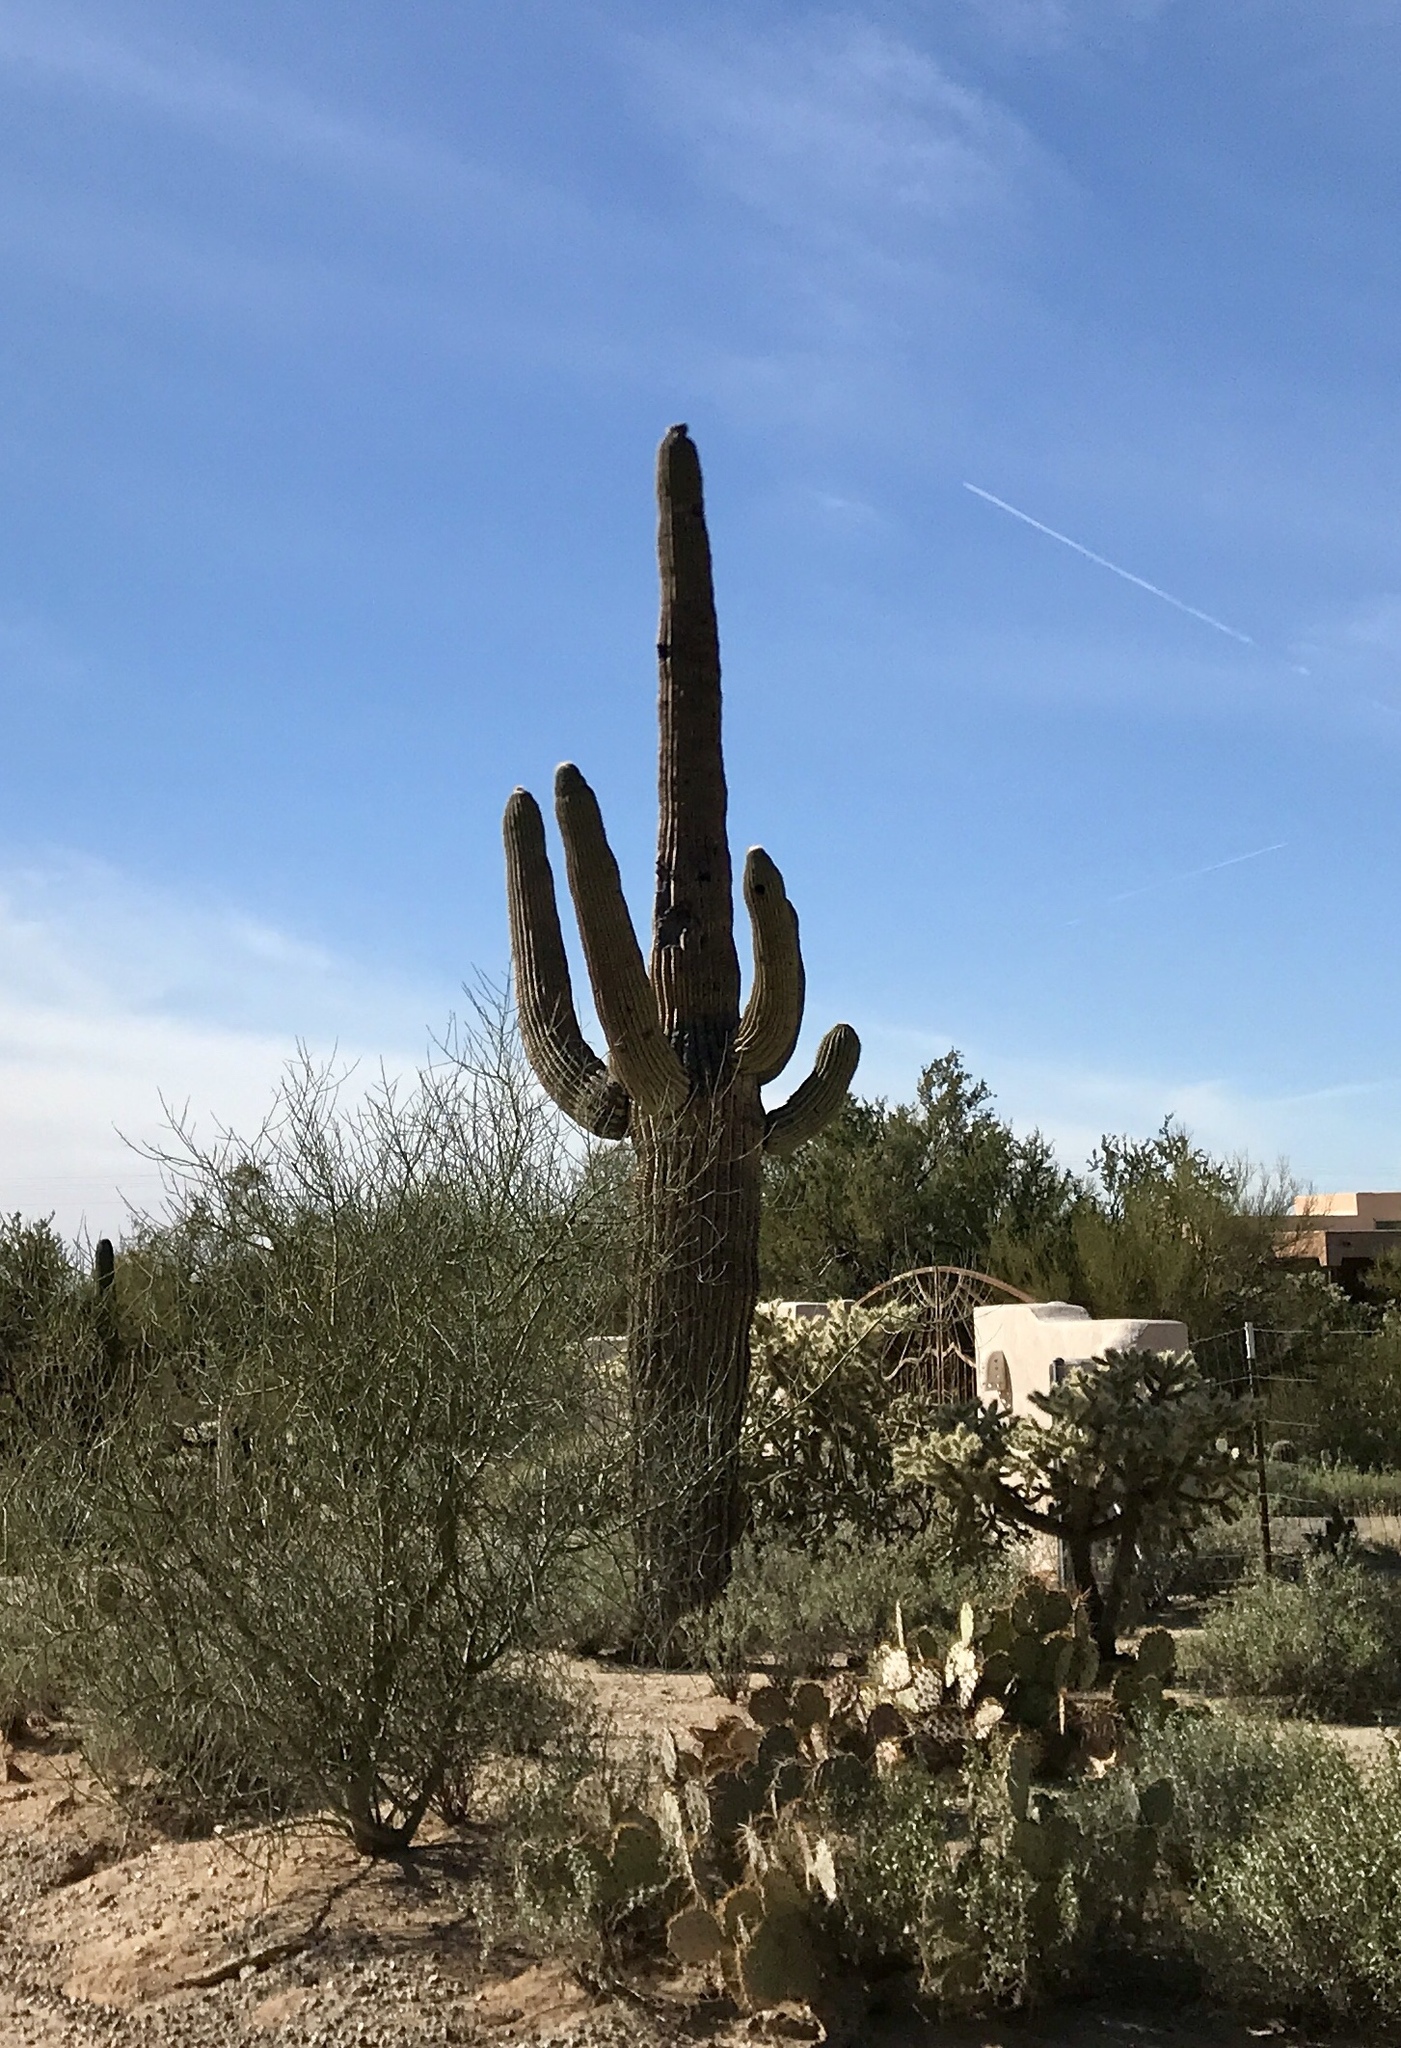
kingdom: Plantae
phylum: Tracheophyta
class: Magnoliopsida
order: Caryophyllales
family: Cactaceae
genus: Carnegiea
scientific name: Carnegiea gigantea
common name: Saguaro
